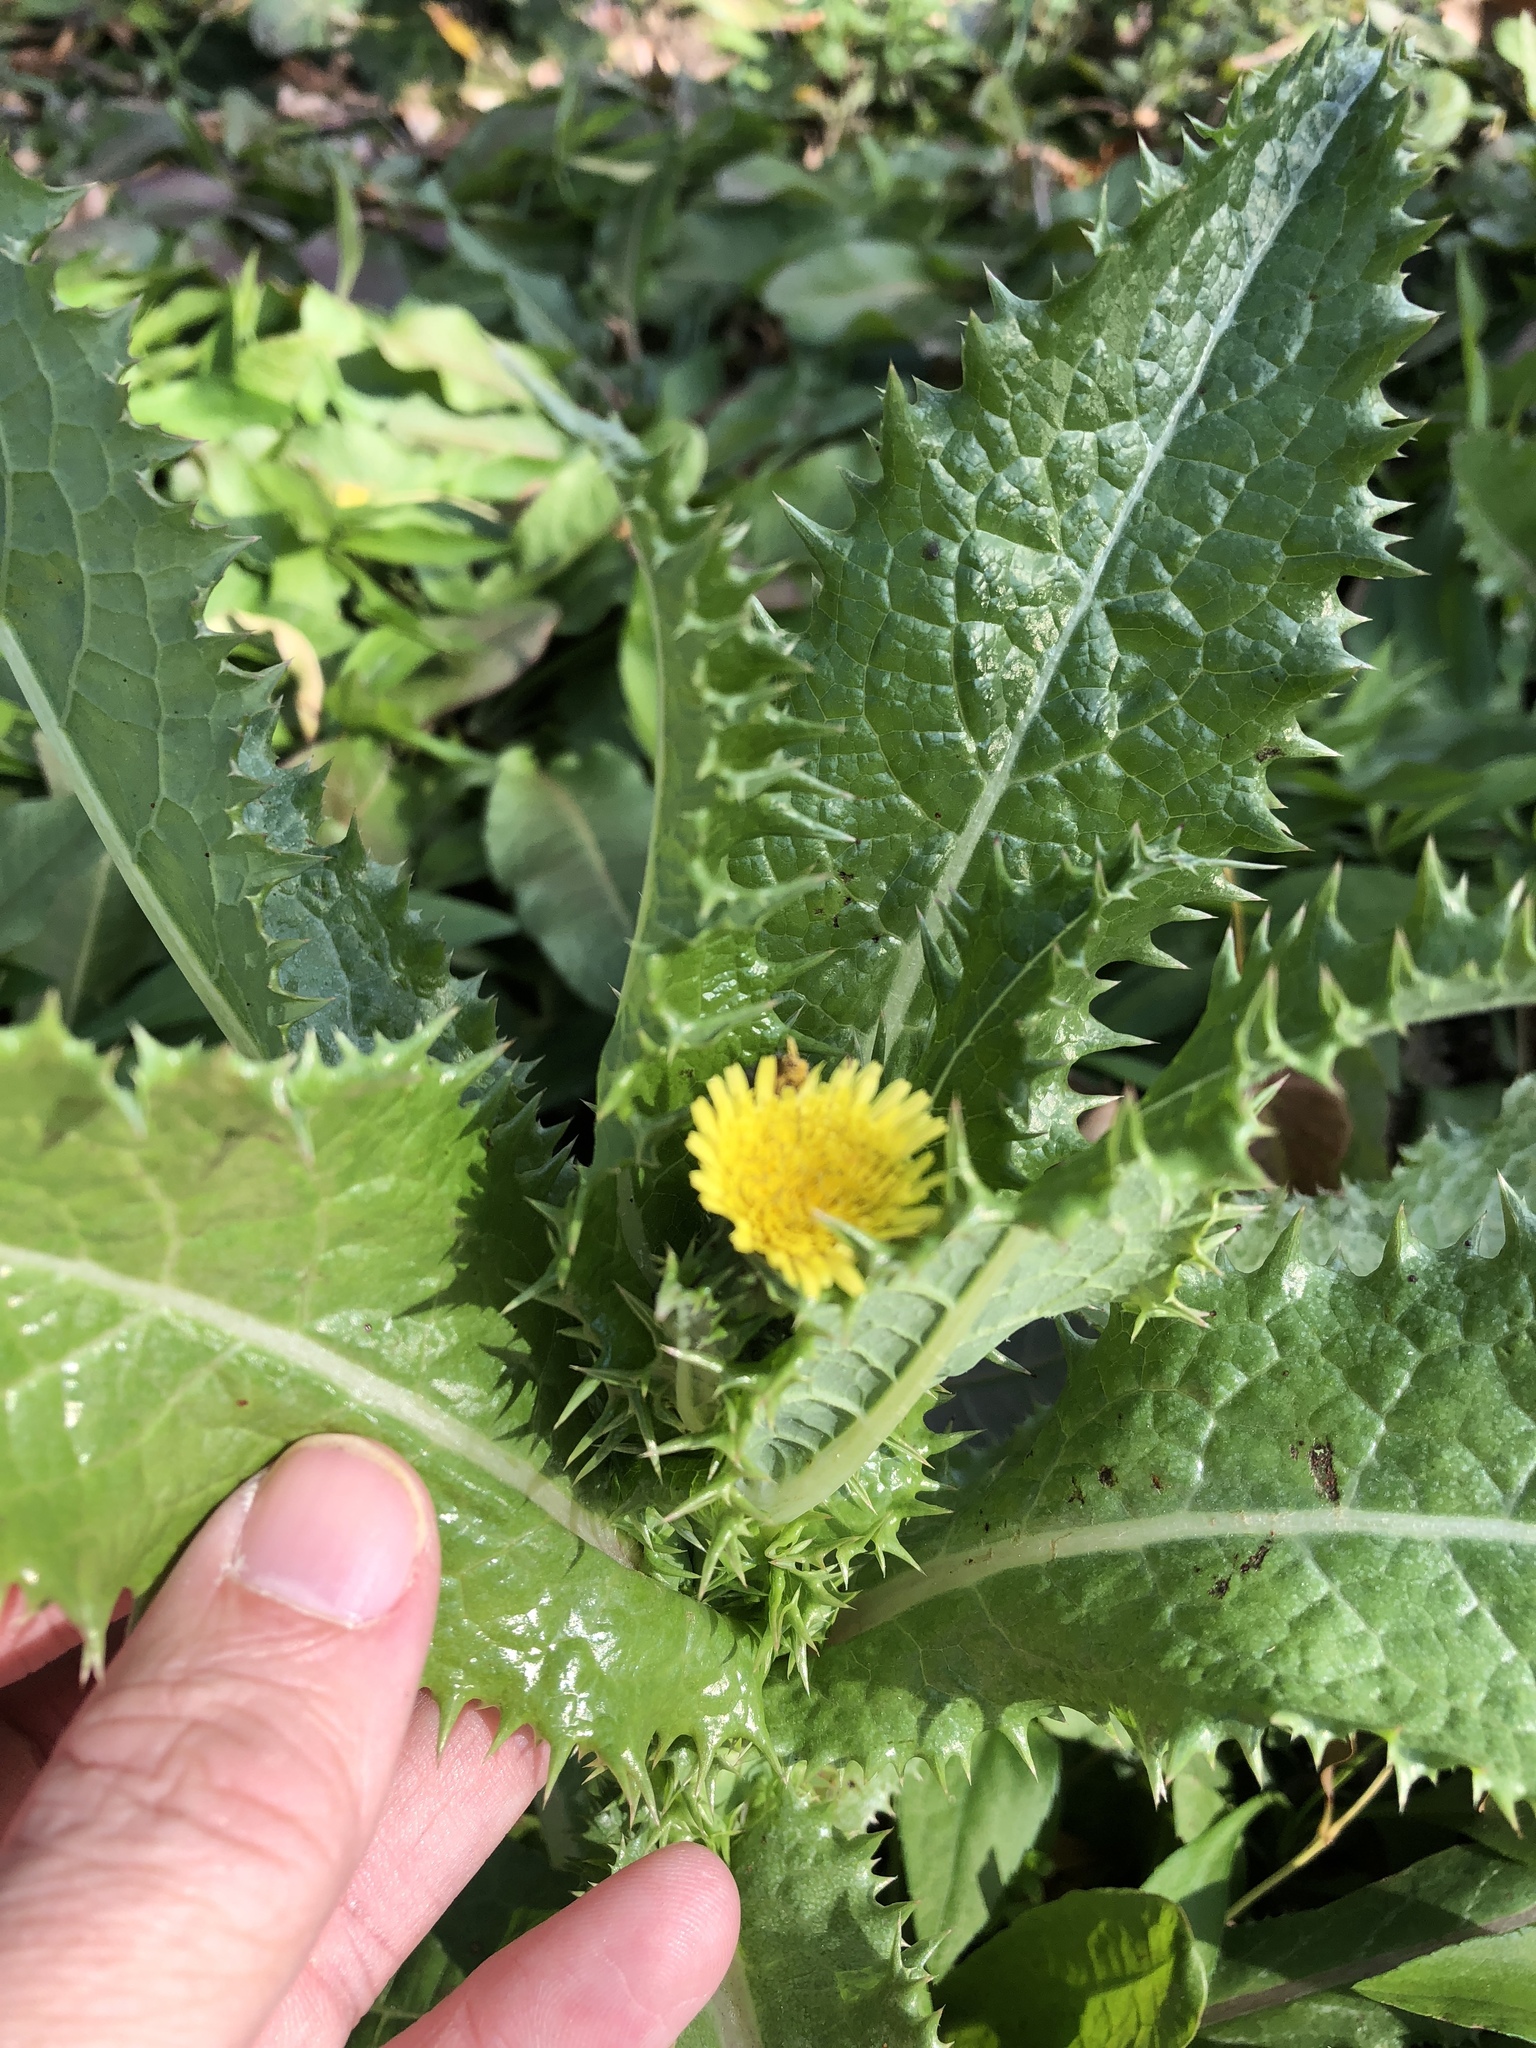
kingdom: Plantae
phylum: Tracheophyta
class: Magnoliopsida
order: Asterales
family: Asteraceae
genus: Sonchus
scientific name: Sonchus asper
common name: Prickly sow-thistle
